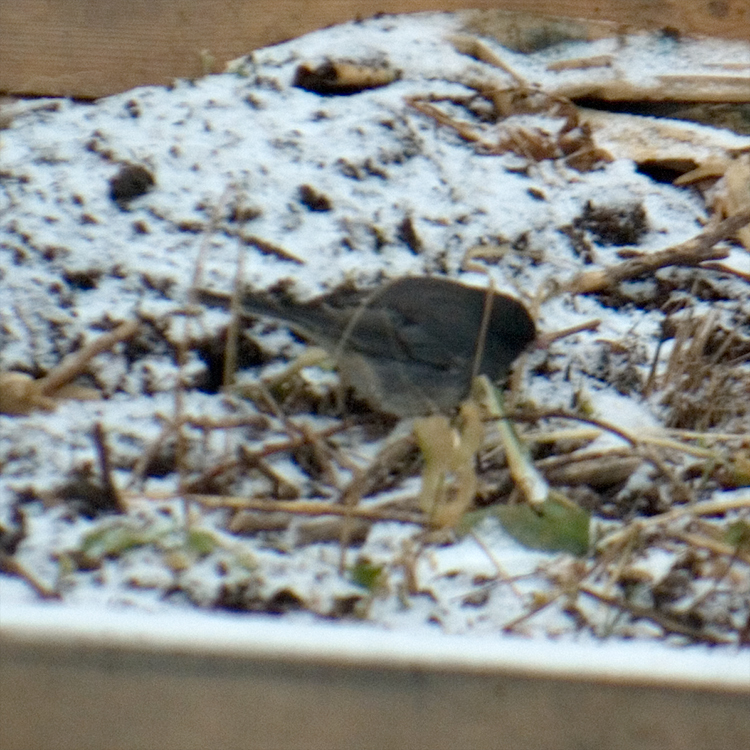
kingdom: Animalia
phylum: Chordata
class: Aves
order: Passeriformes
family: Passerellidae
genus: Junco
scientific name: Junco hyemalis
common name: Dark-eyed junco
